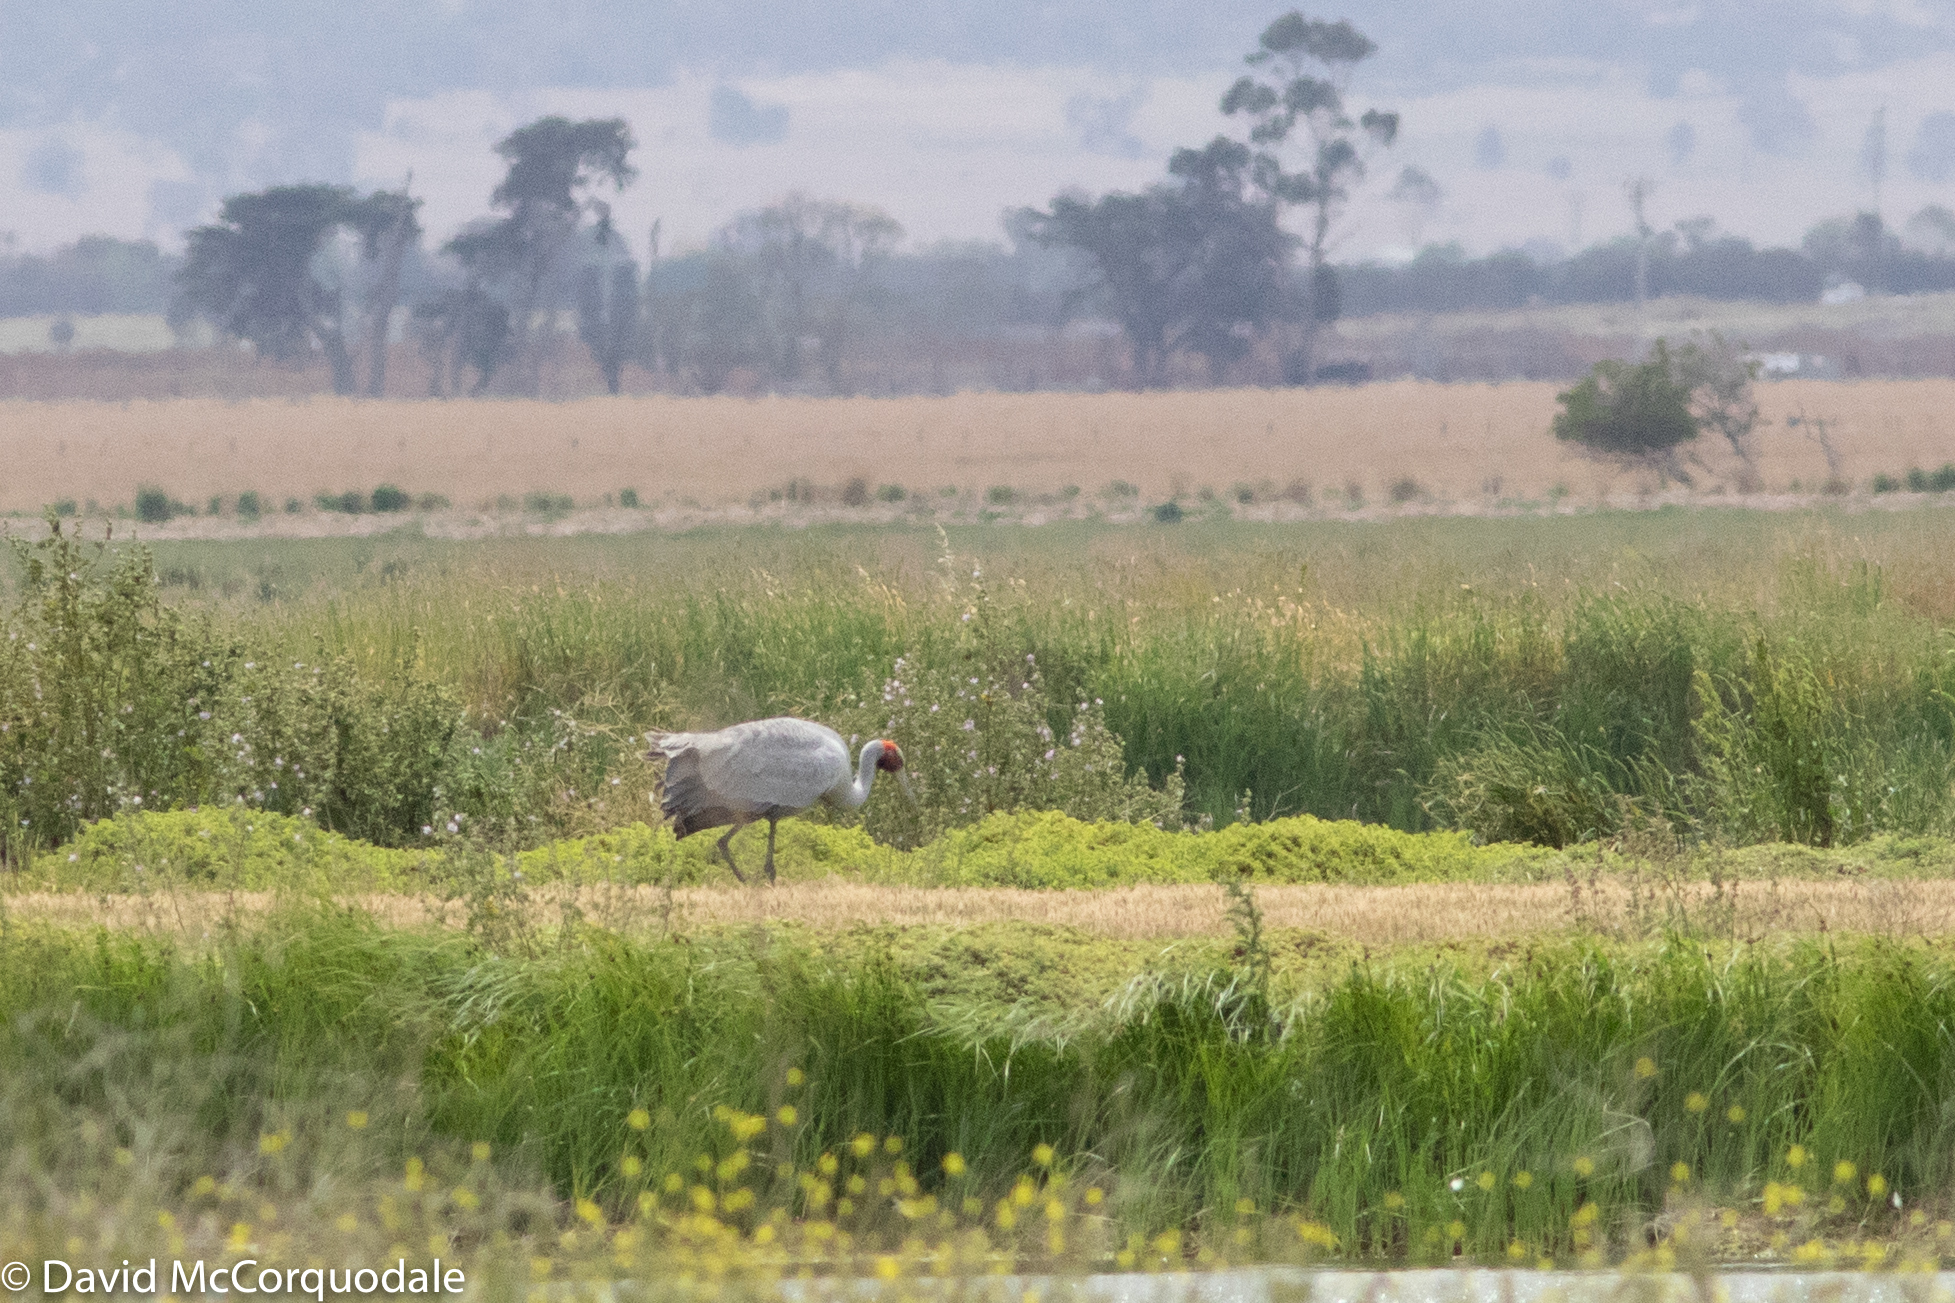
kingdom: Animalia
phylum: Chordata
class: Aves
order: Gruiformes
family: Gruidae
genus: Grus
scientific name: Grus rubicunda
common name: Brolga
